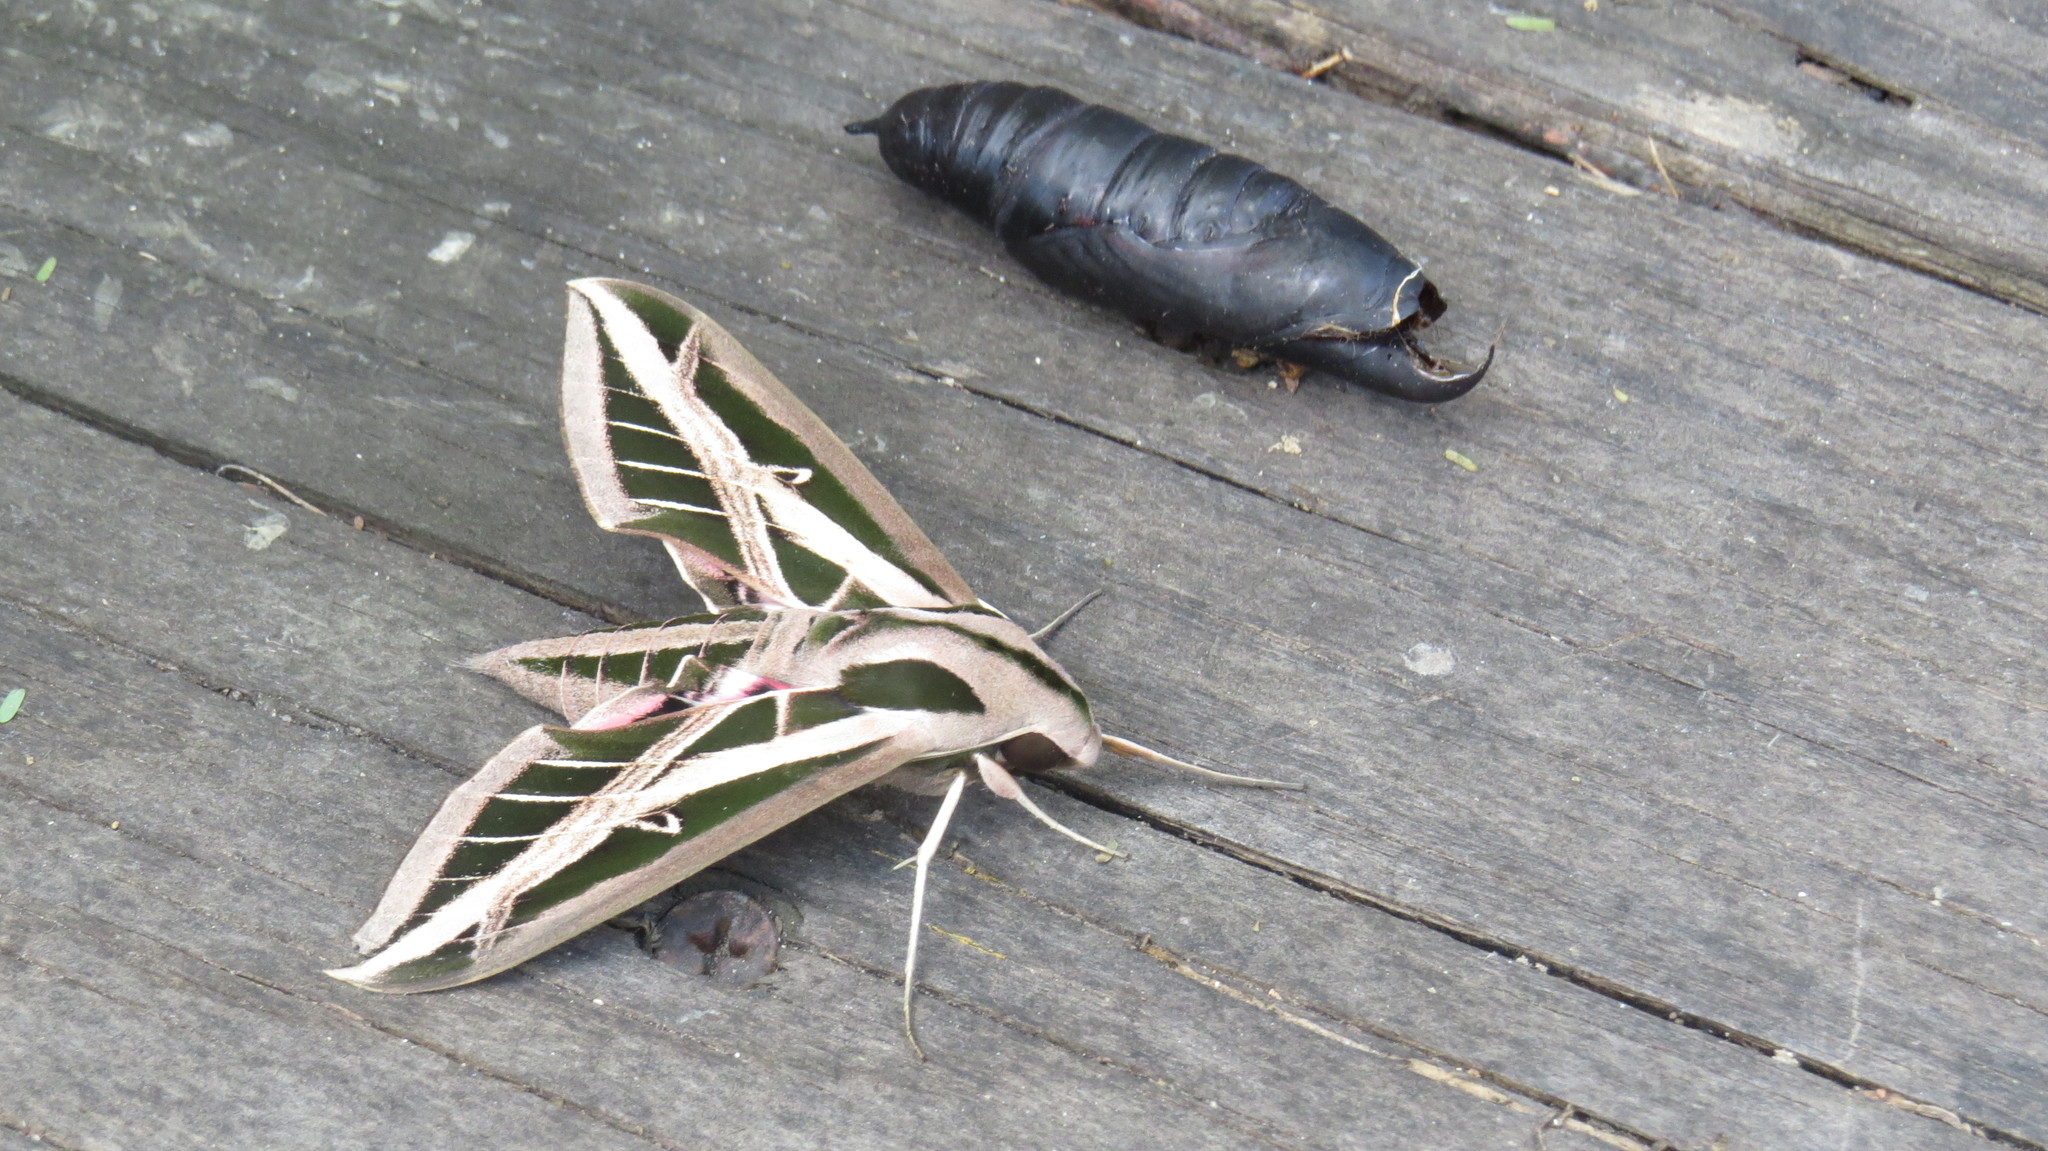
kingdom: Animalia
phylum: Arthropoda
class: Insecta
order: Lepidoptera
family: Sphingidae
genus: Eumorpha
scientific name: Eumorpha fasciatus
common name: Banded sphinx
